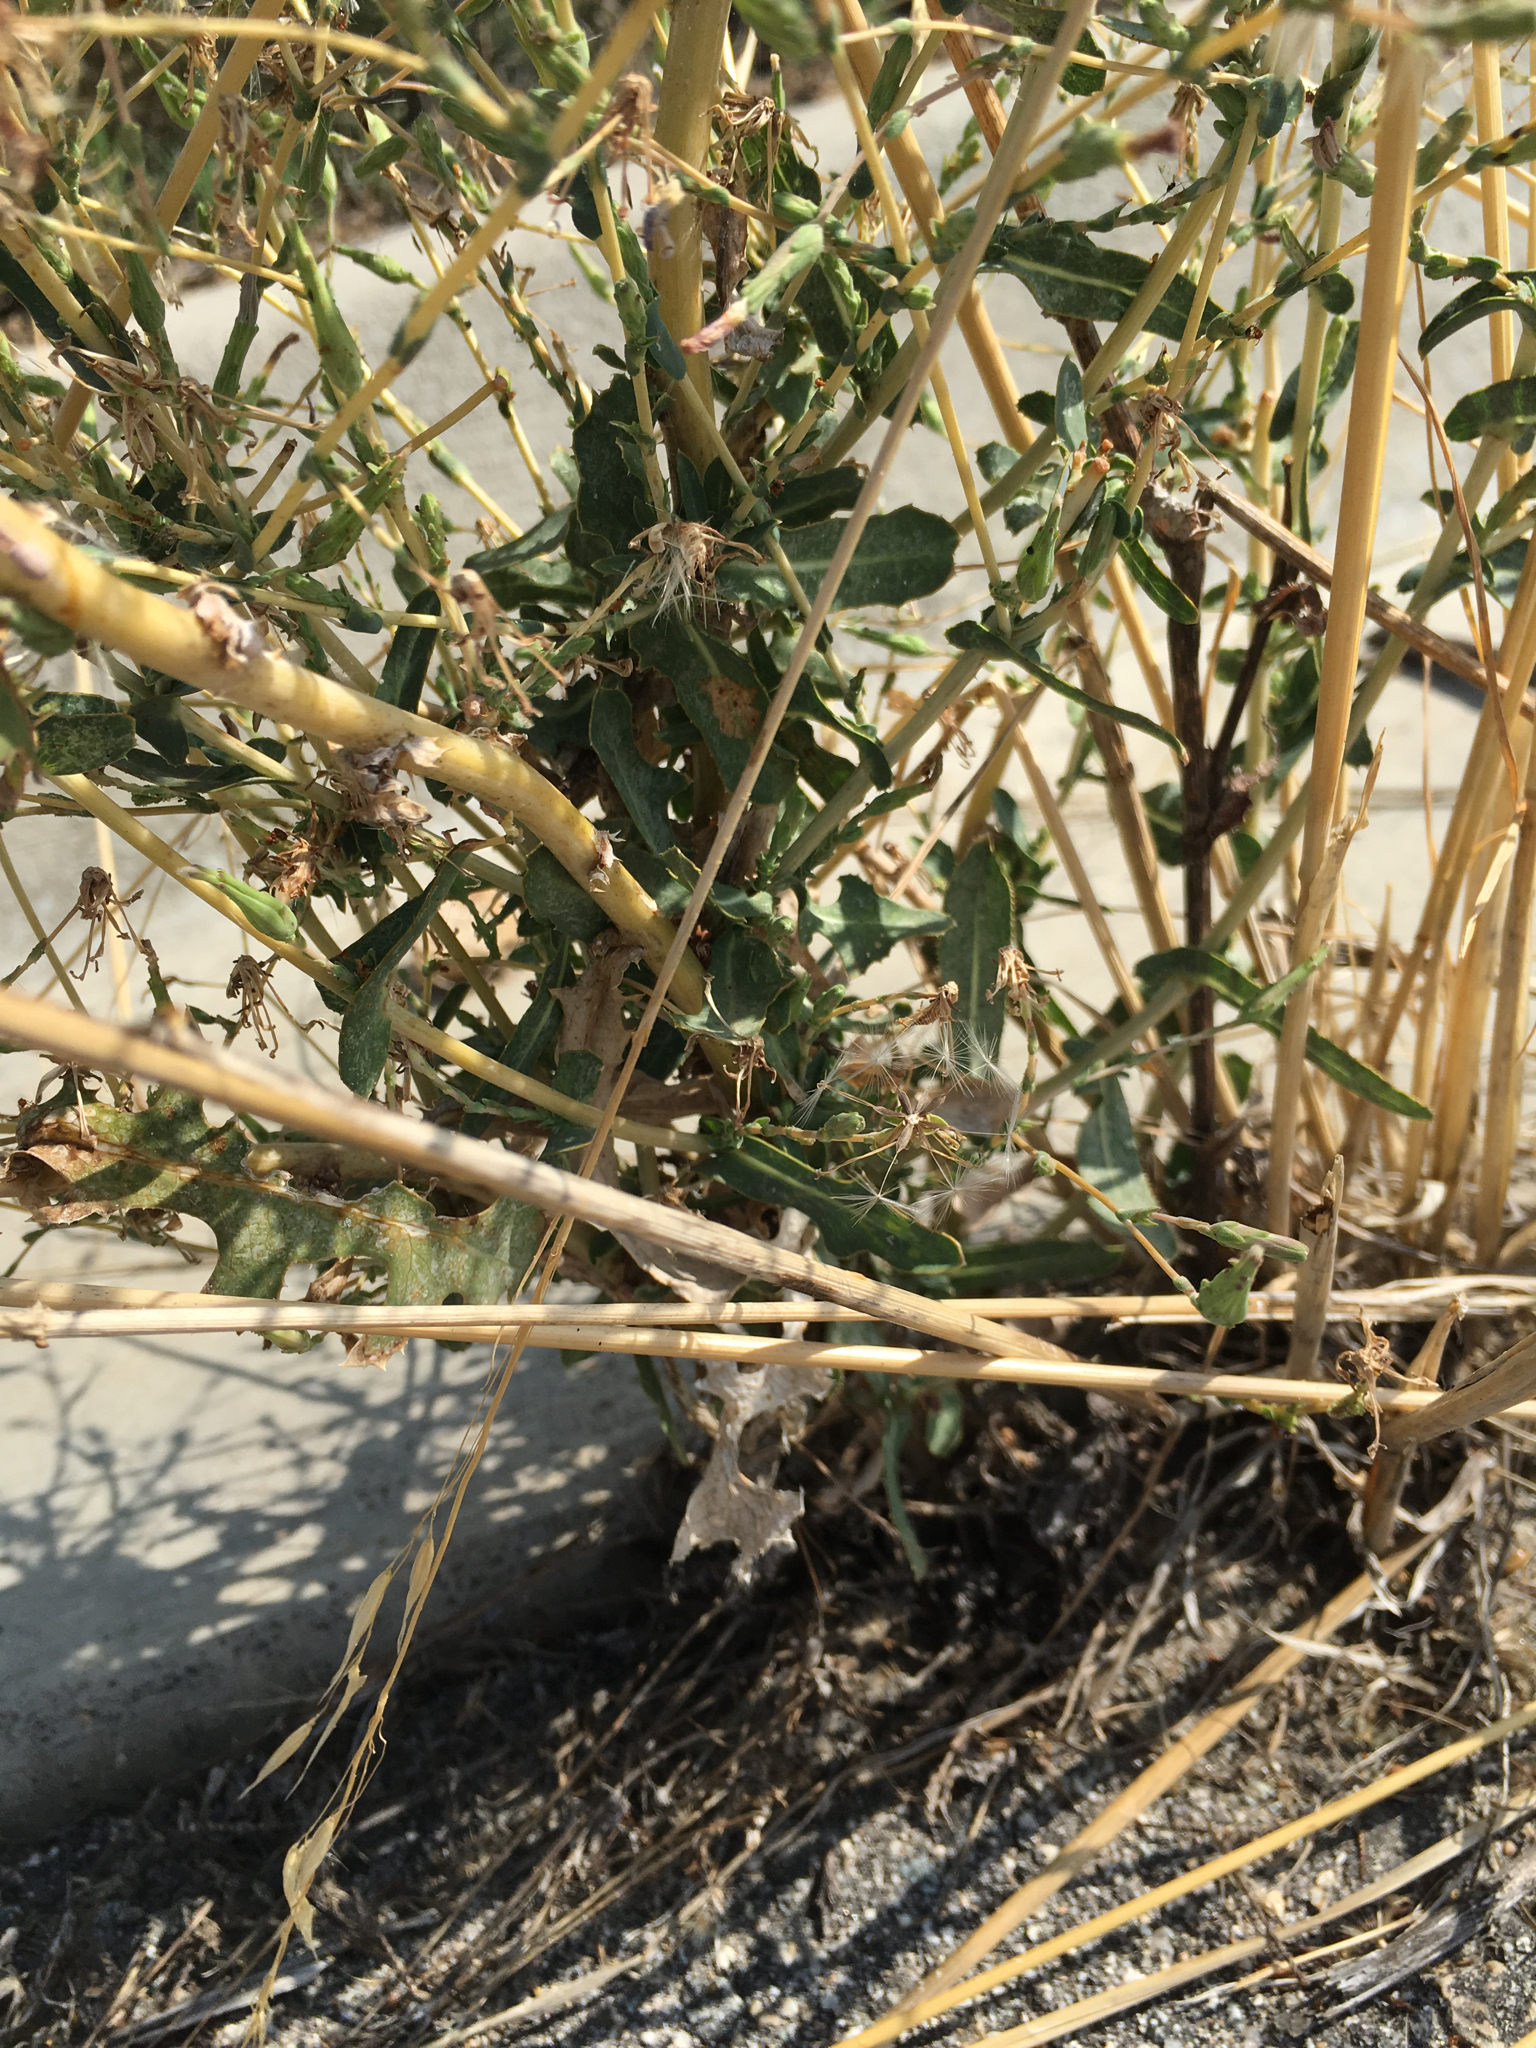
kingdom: Plantae
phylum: Tracheophyta
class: Magnoliopsida
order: Asterales
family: Asteraceae
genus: Lactuca
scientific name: Lactuca serriola
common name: Prickly lettuce
